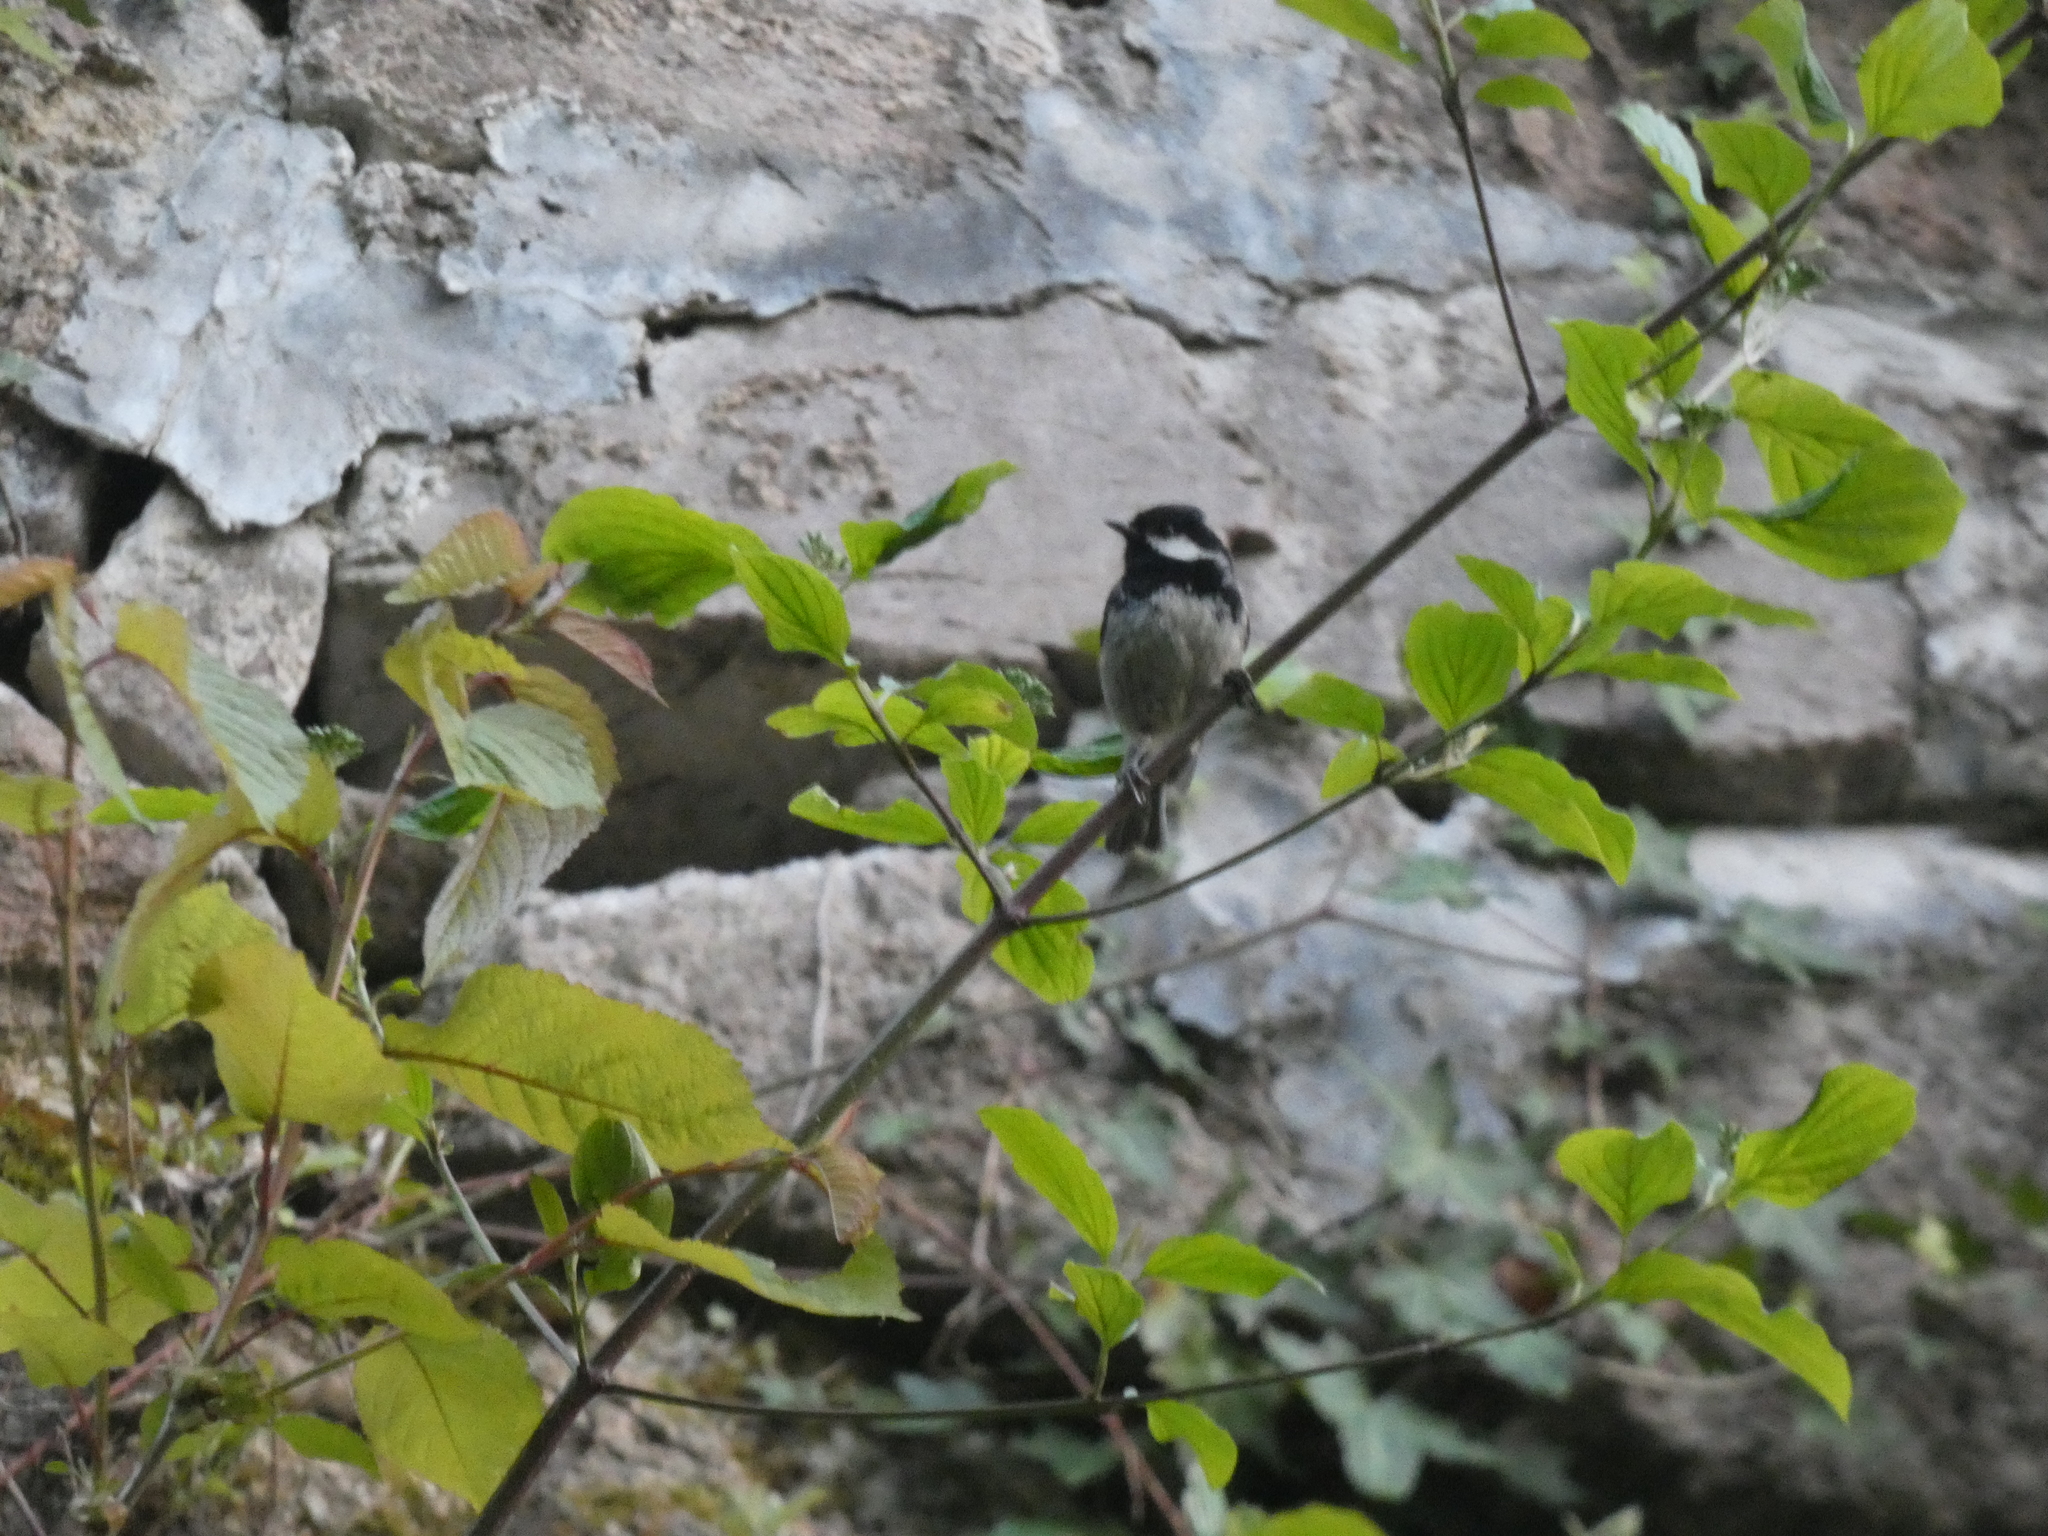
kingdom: Animalia
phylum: Chordata
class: Aves
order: Passeriformes
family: Paridae
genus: Periparus
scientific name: Periparus ater
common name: Coal tit
